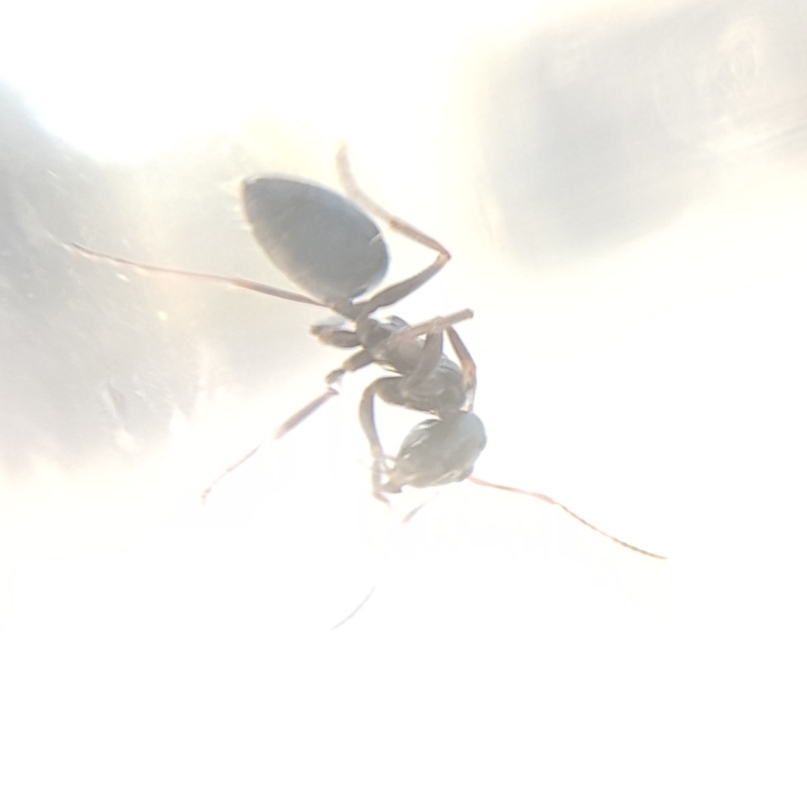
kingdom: Animalia
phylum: Arthropoda
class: Insecta
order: Hymenoptera
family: Formicidae
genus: Camponotus
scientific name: Camponotus piceus
